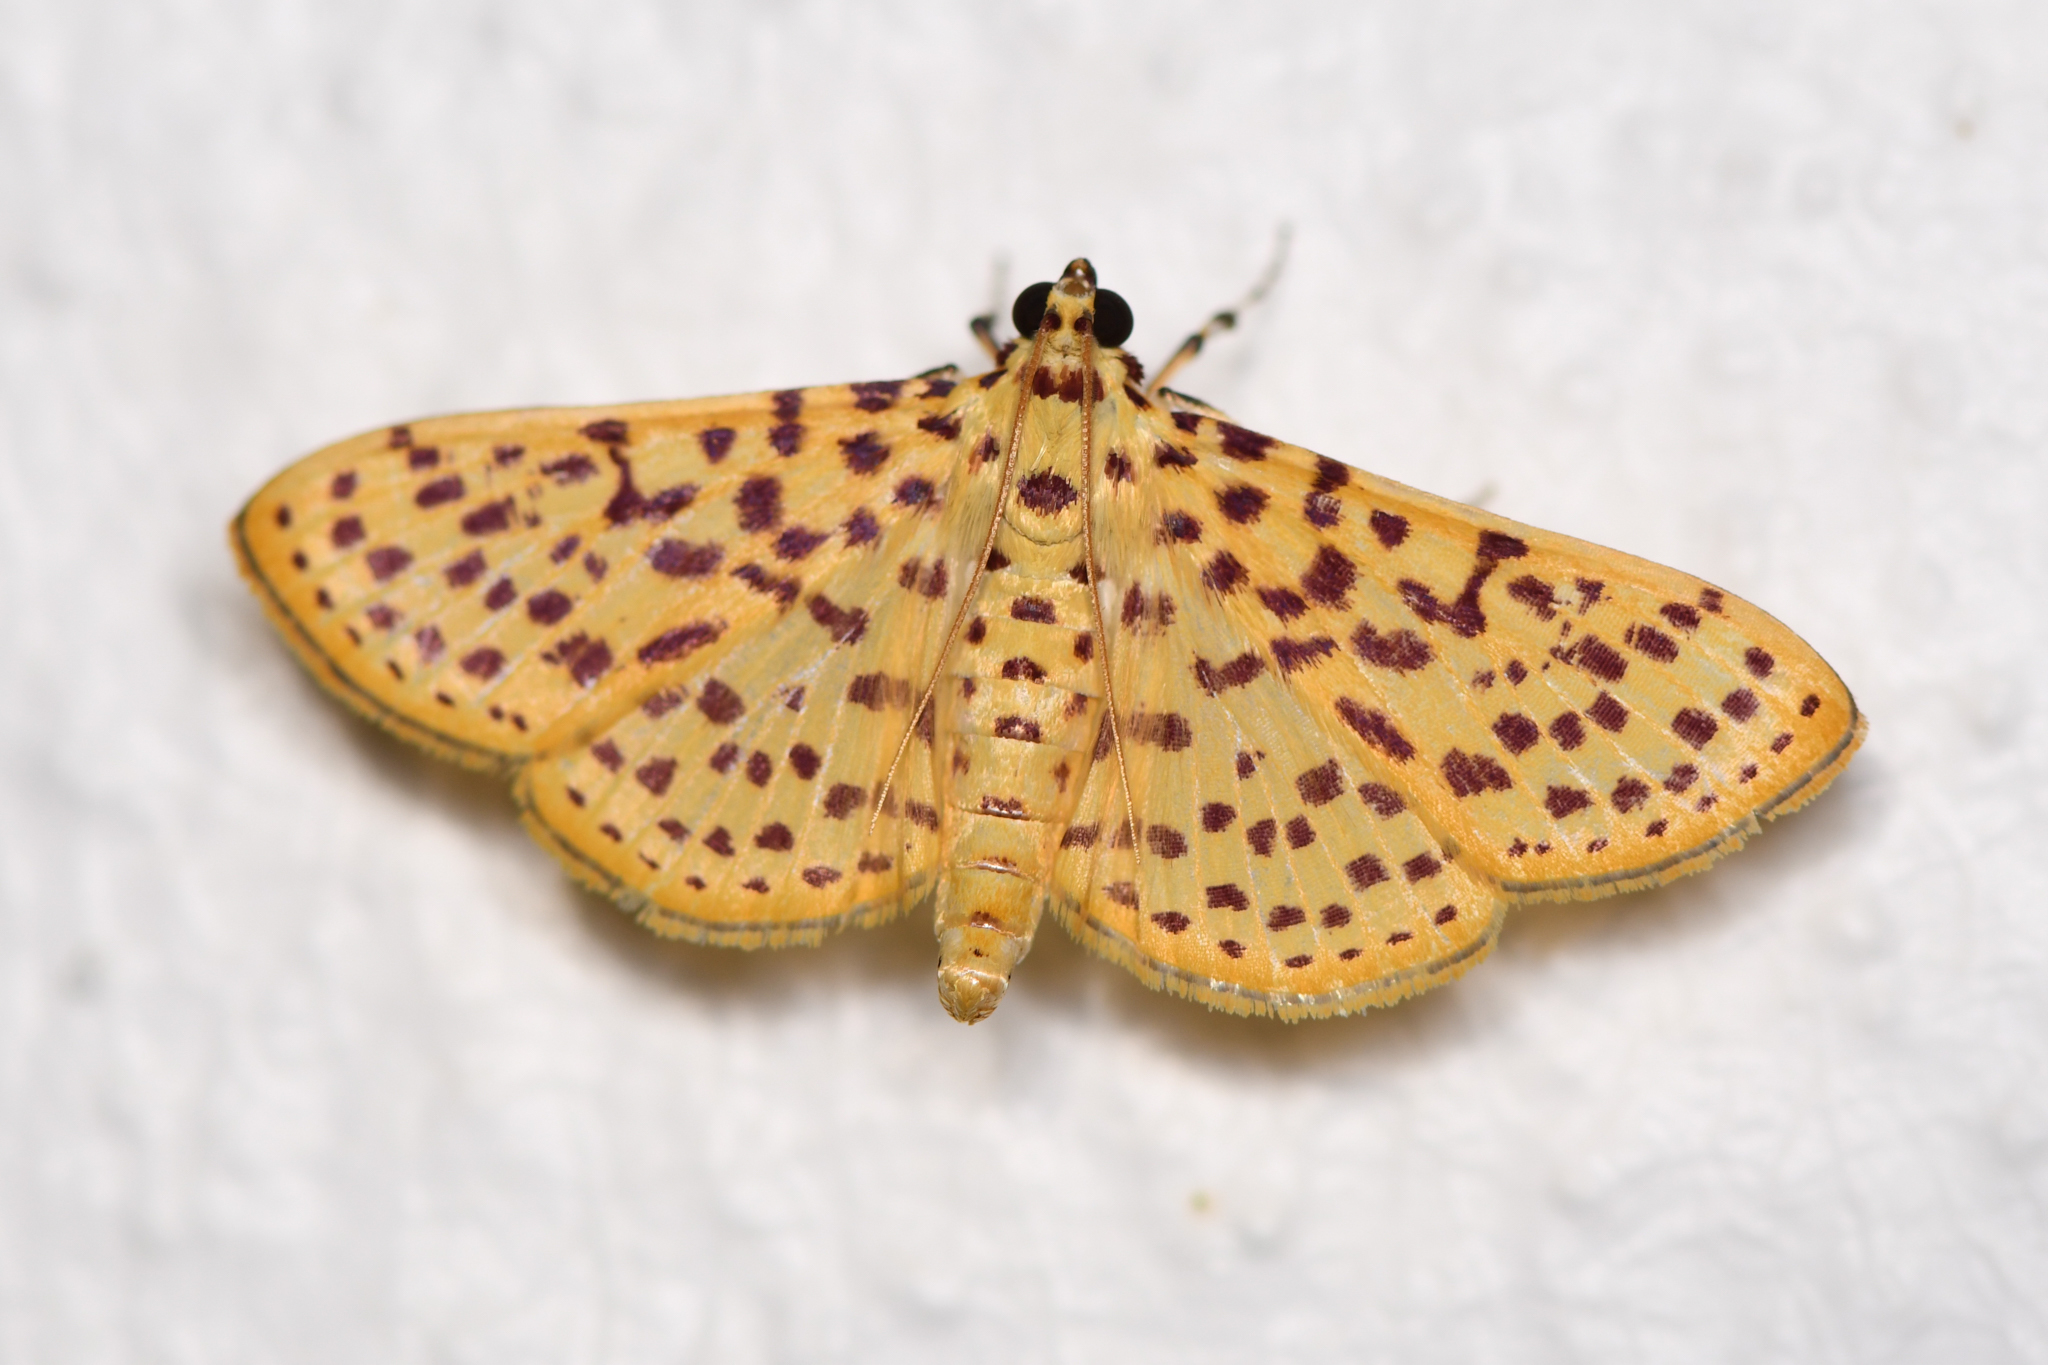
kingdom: Animalia
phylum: Arthropoda
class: Insecta
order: Lepidoptera
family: Crambidae
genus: Polygrammodes
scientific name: Polygrammodes elevata
